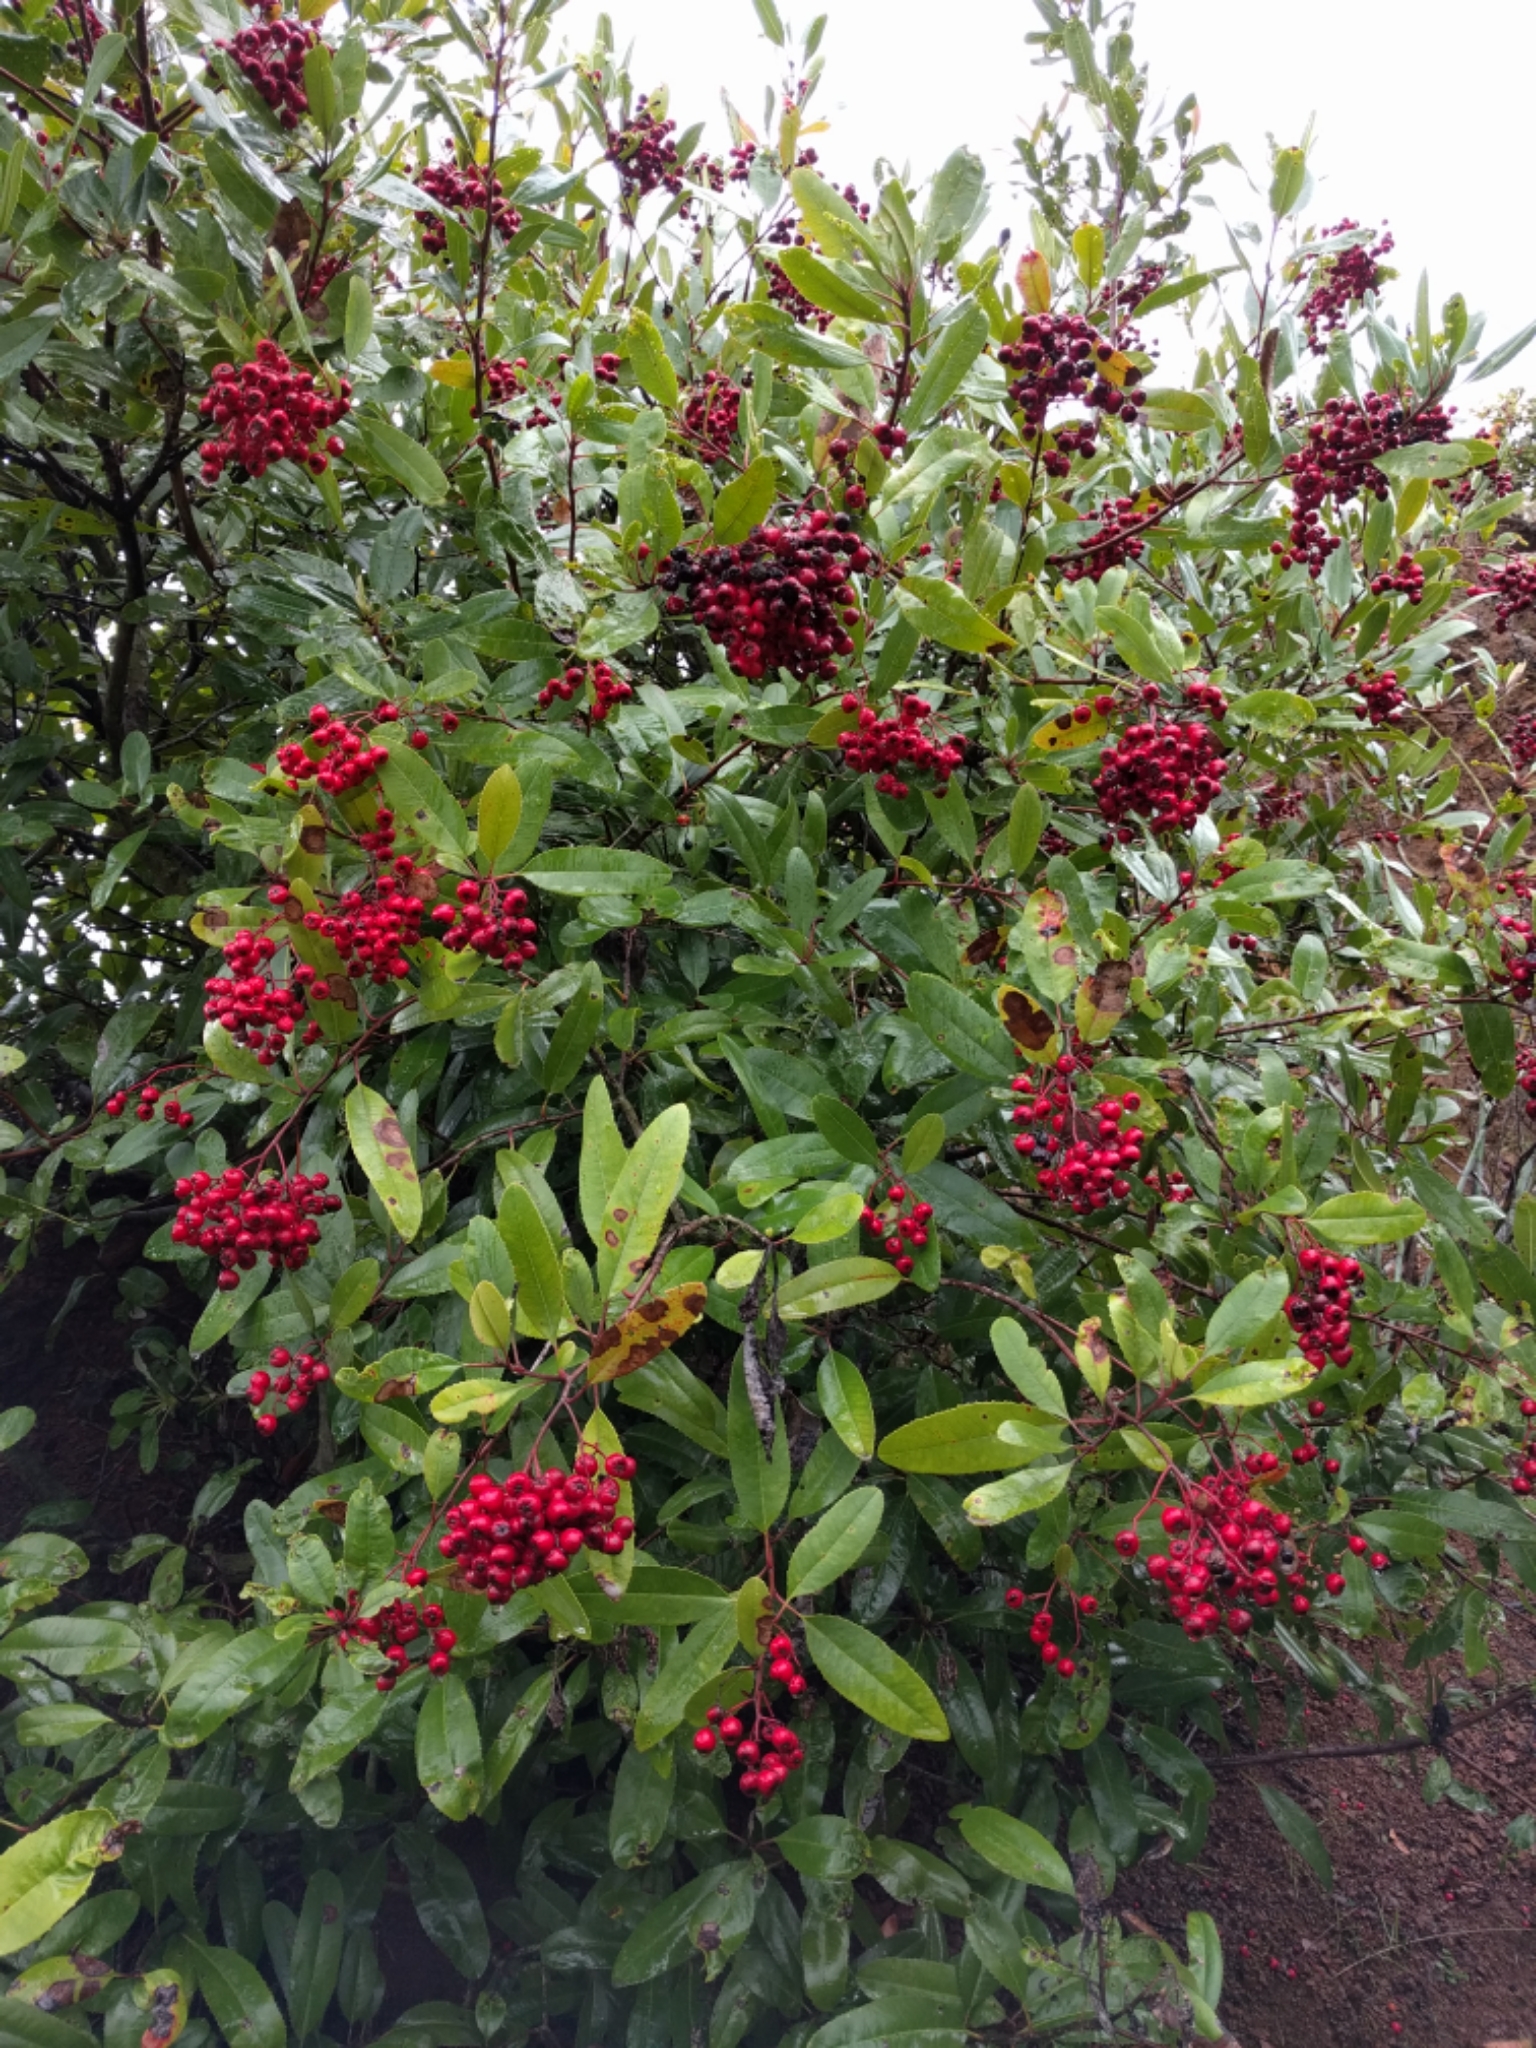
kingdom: Plantae
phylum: Tracheophyta
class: Magnoliopsida
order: Rosales
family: Rosaceae
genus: Heteromeles
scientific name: Heteromeles arbutifolia
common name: California-holly
